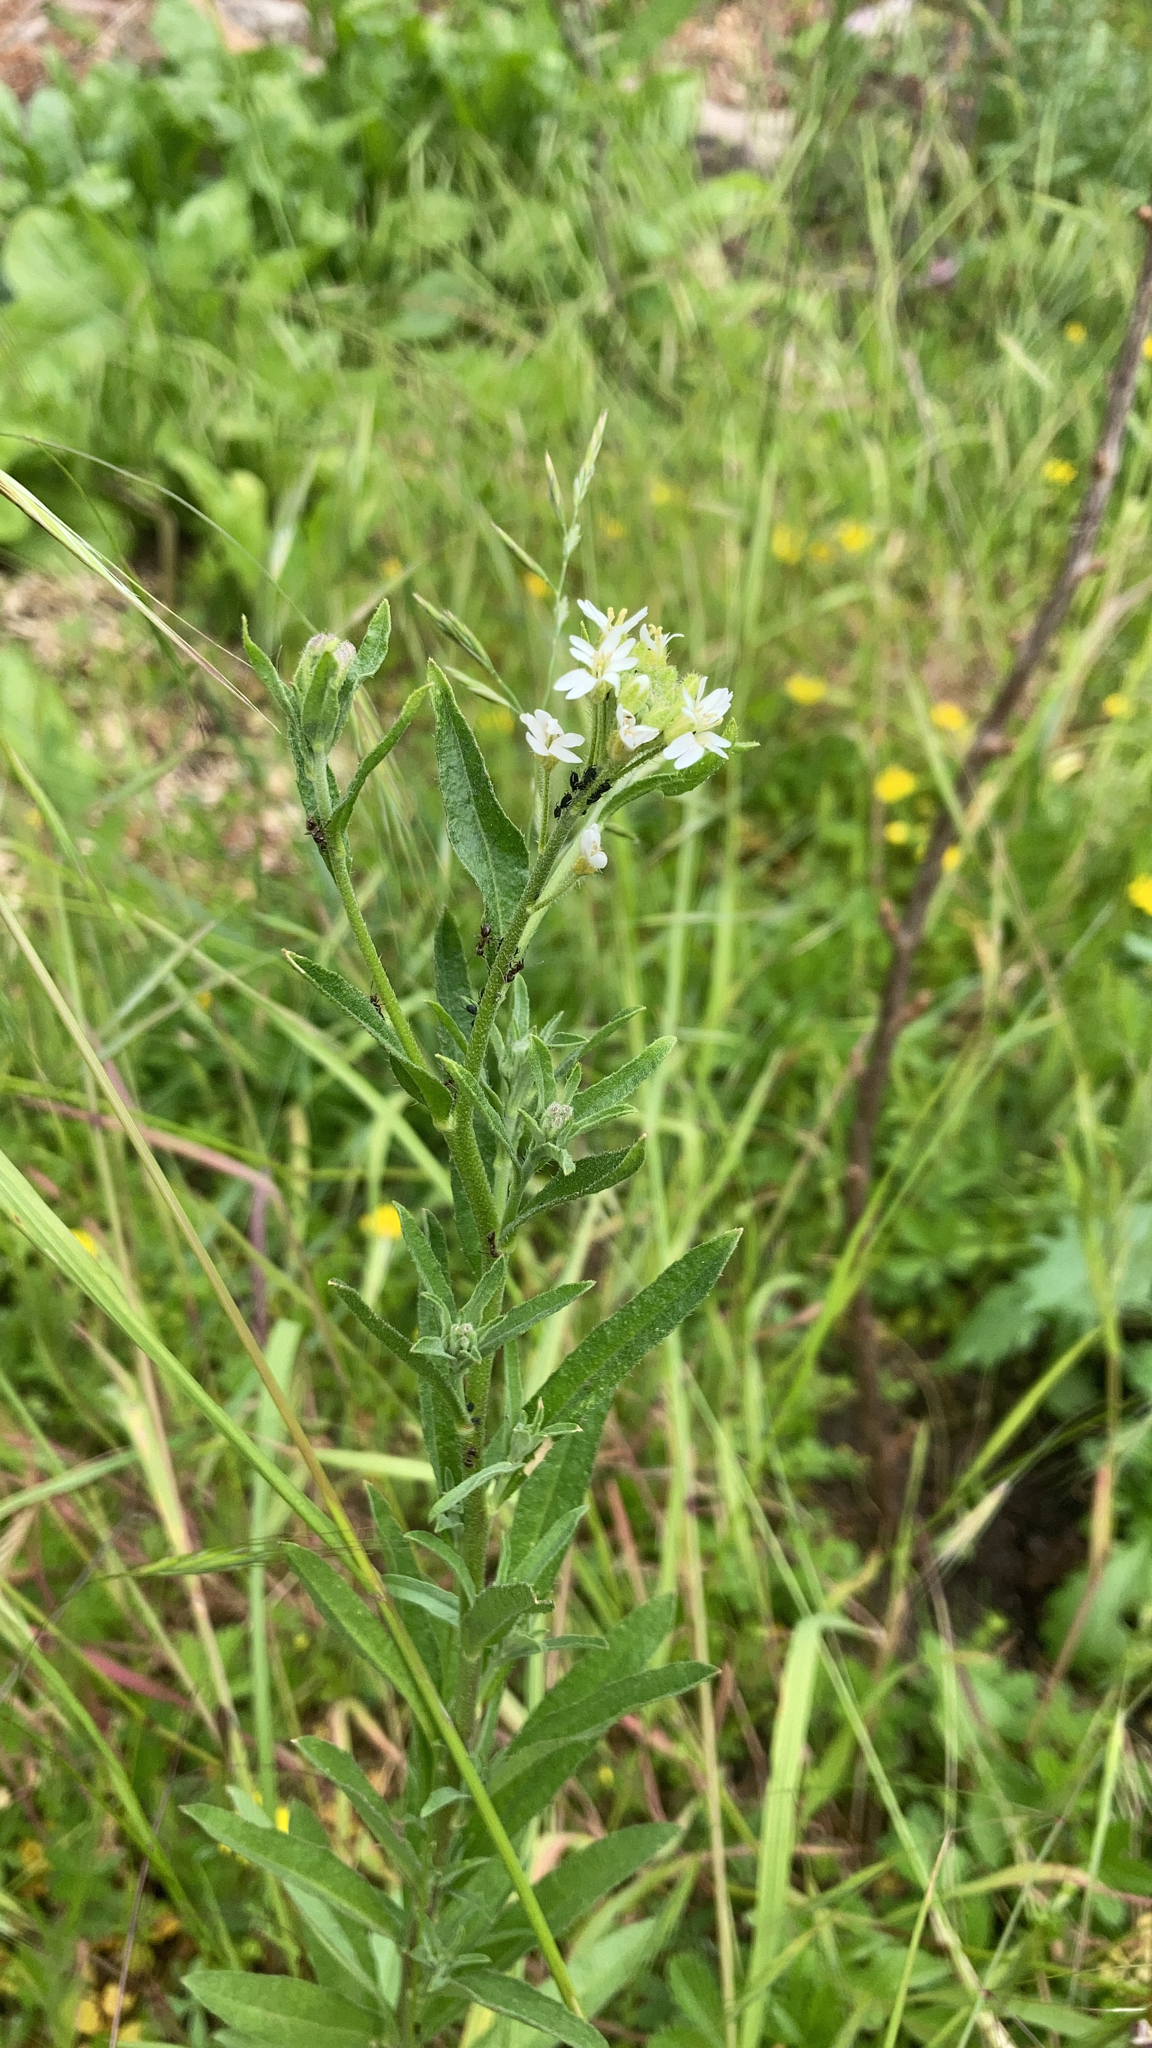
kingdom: Plantae
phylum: Tracheophyta
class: Magnoliopsida
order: Brassicales
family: Brassicaceae
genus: Berteroa
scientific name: Berteroa incana
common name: Hoary alison
